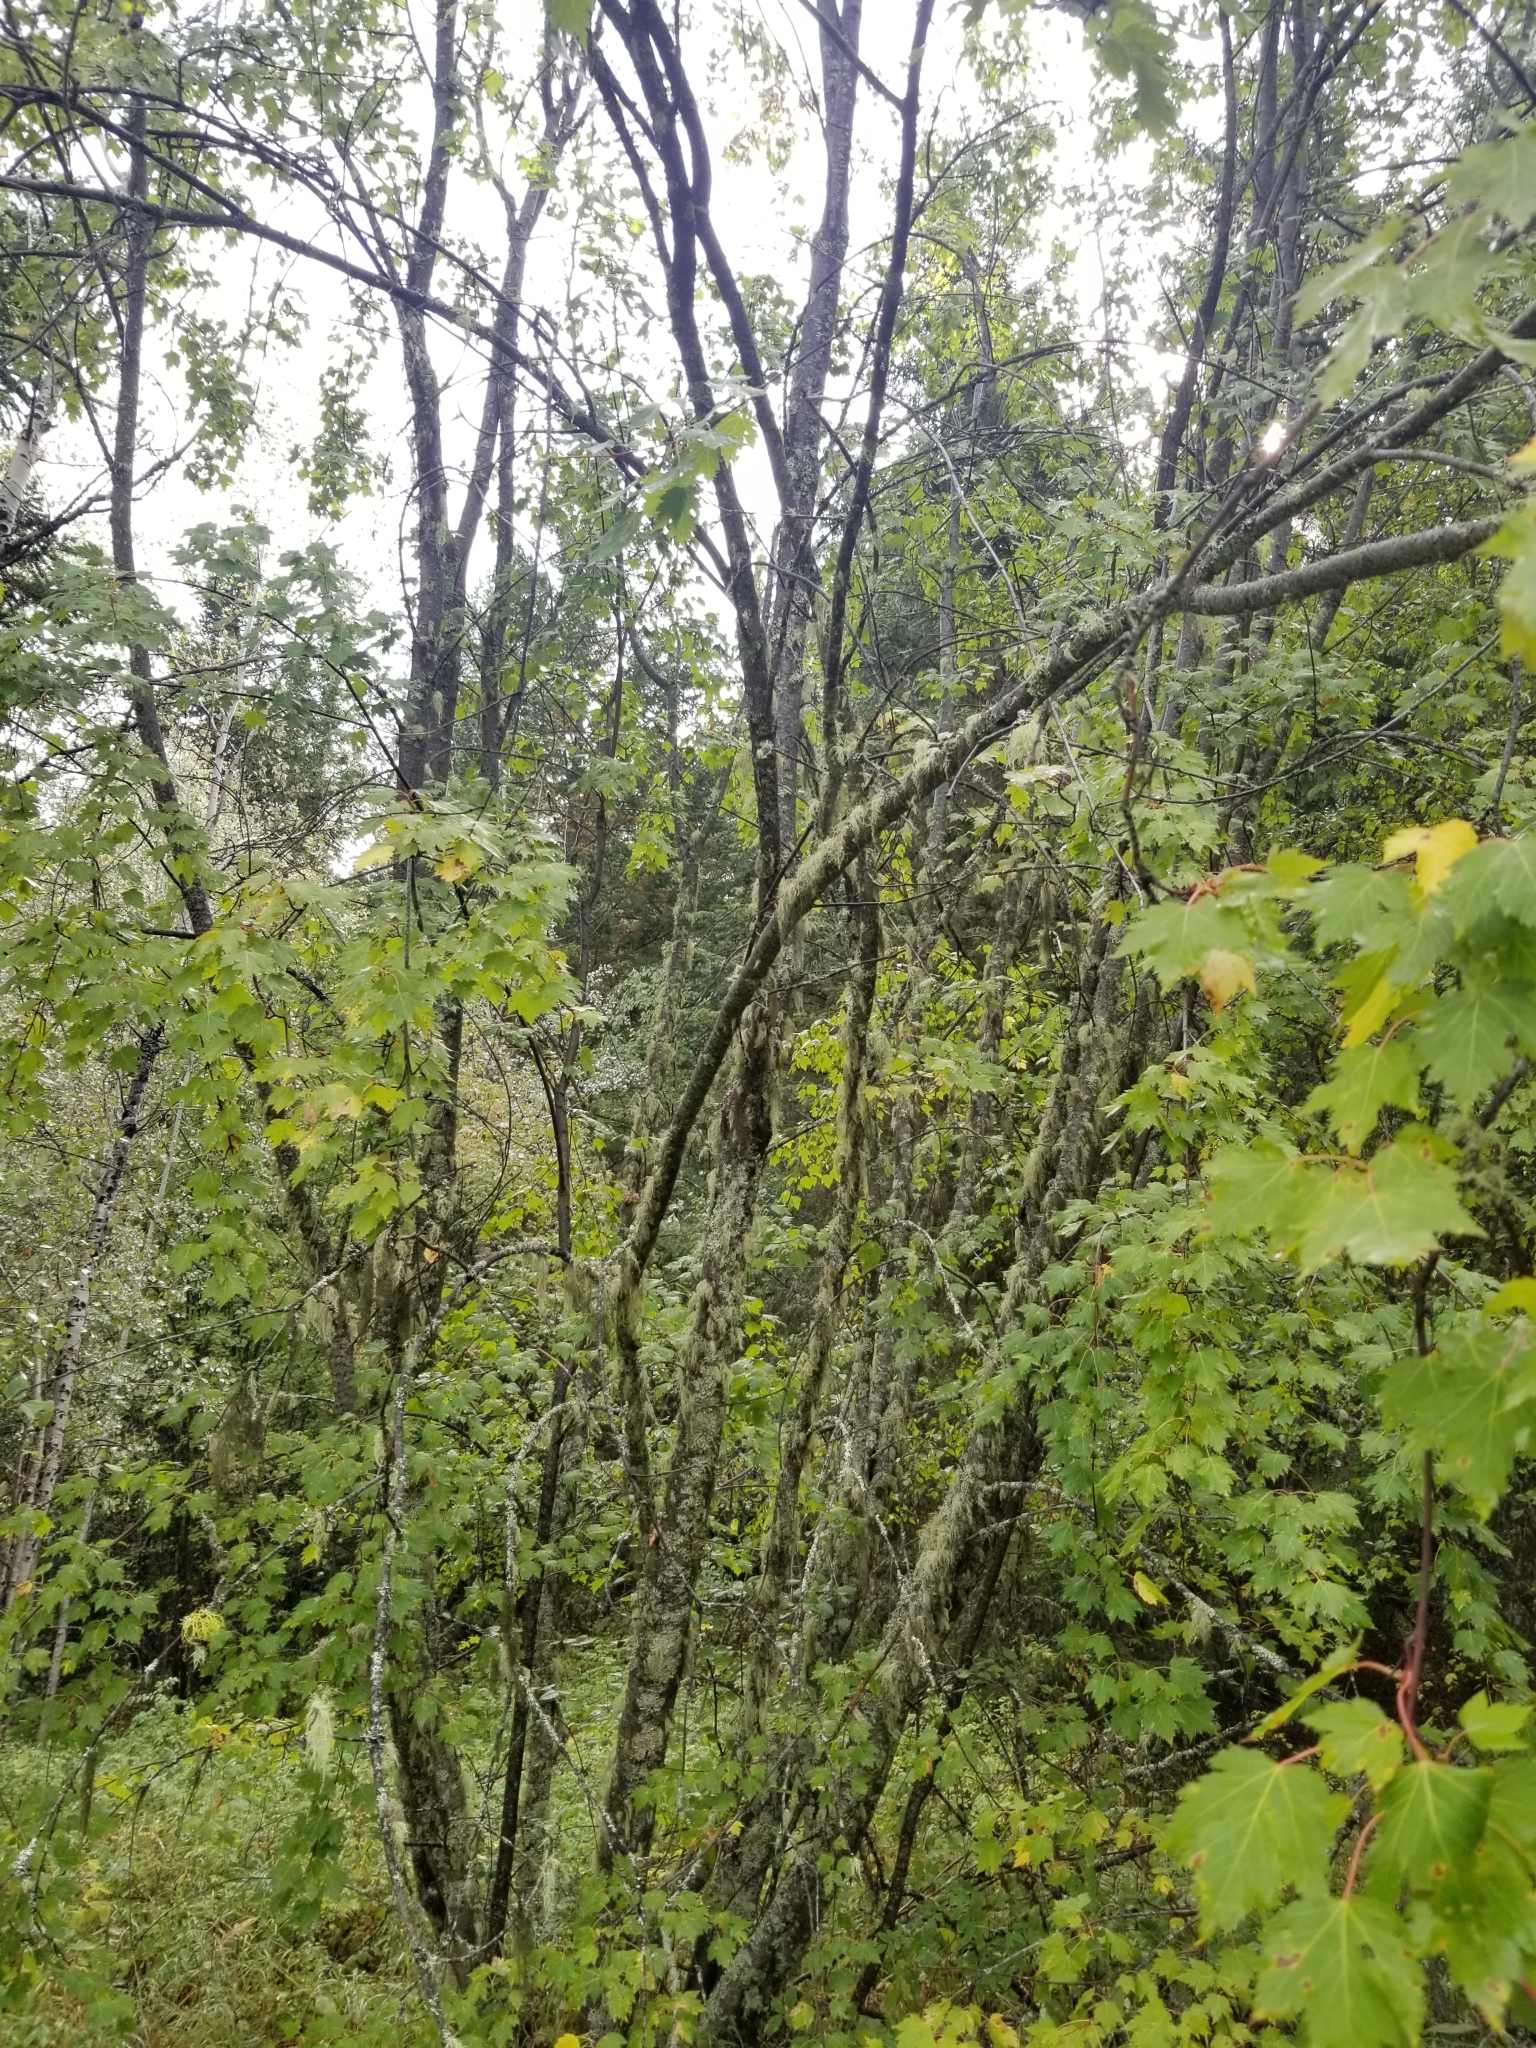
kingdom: Plantae
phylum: Tracheophyta
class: Magnoliopsida
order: Sapindales
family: Sapindaceae
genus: Acer
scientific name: Acer glabrum
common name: Rocky mountain maple
